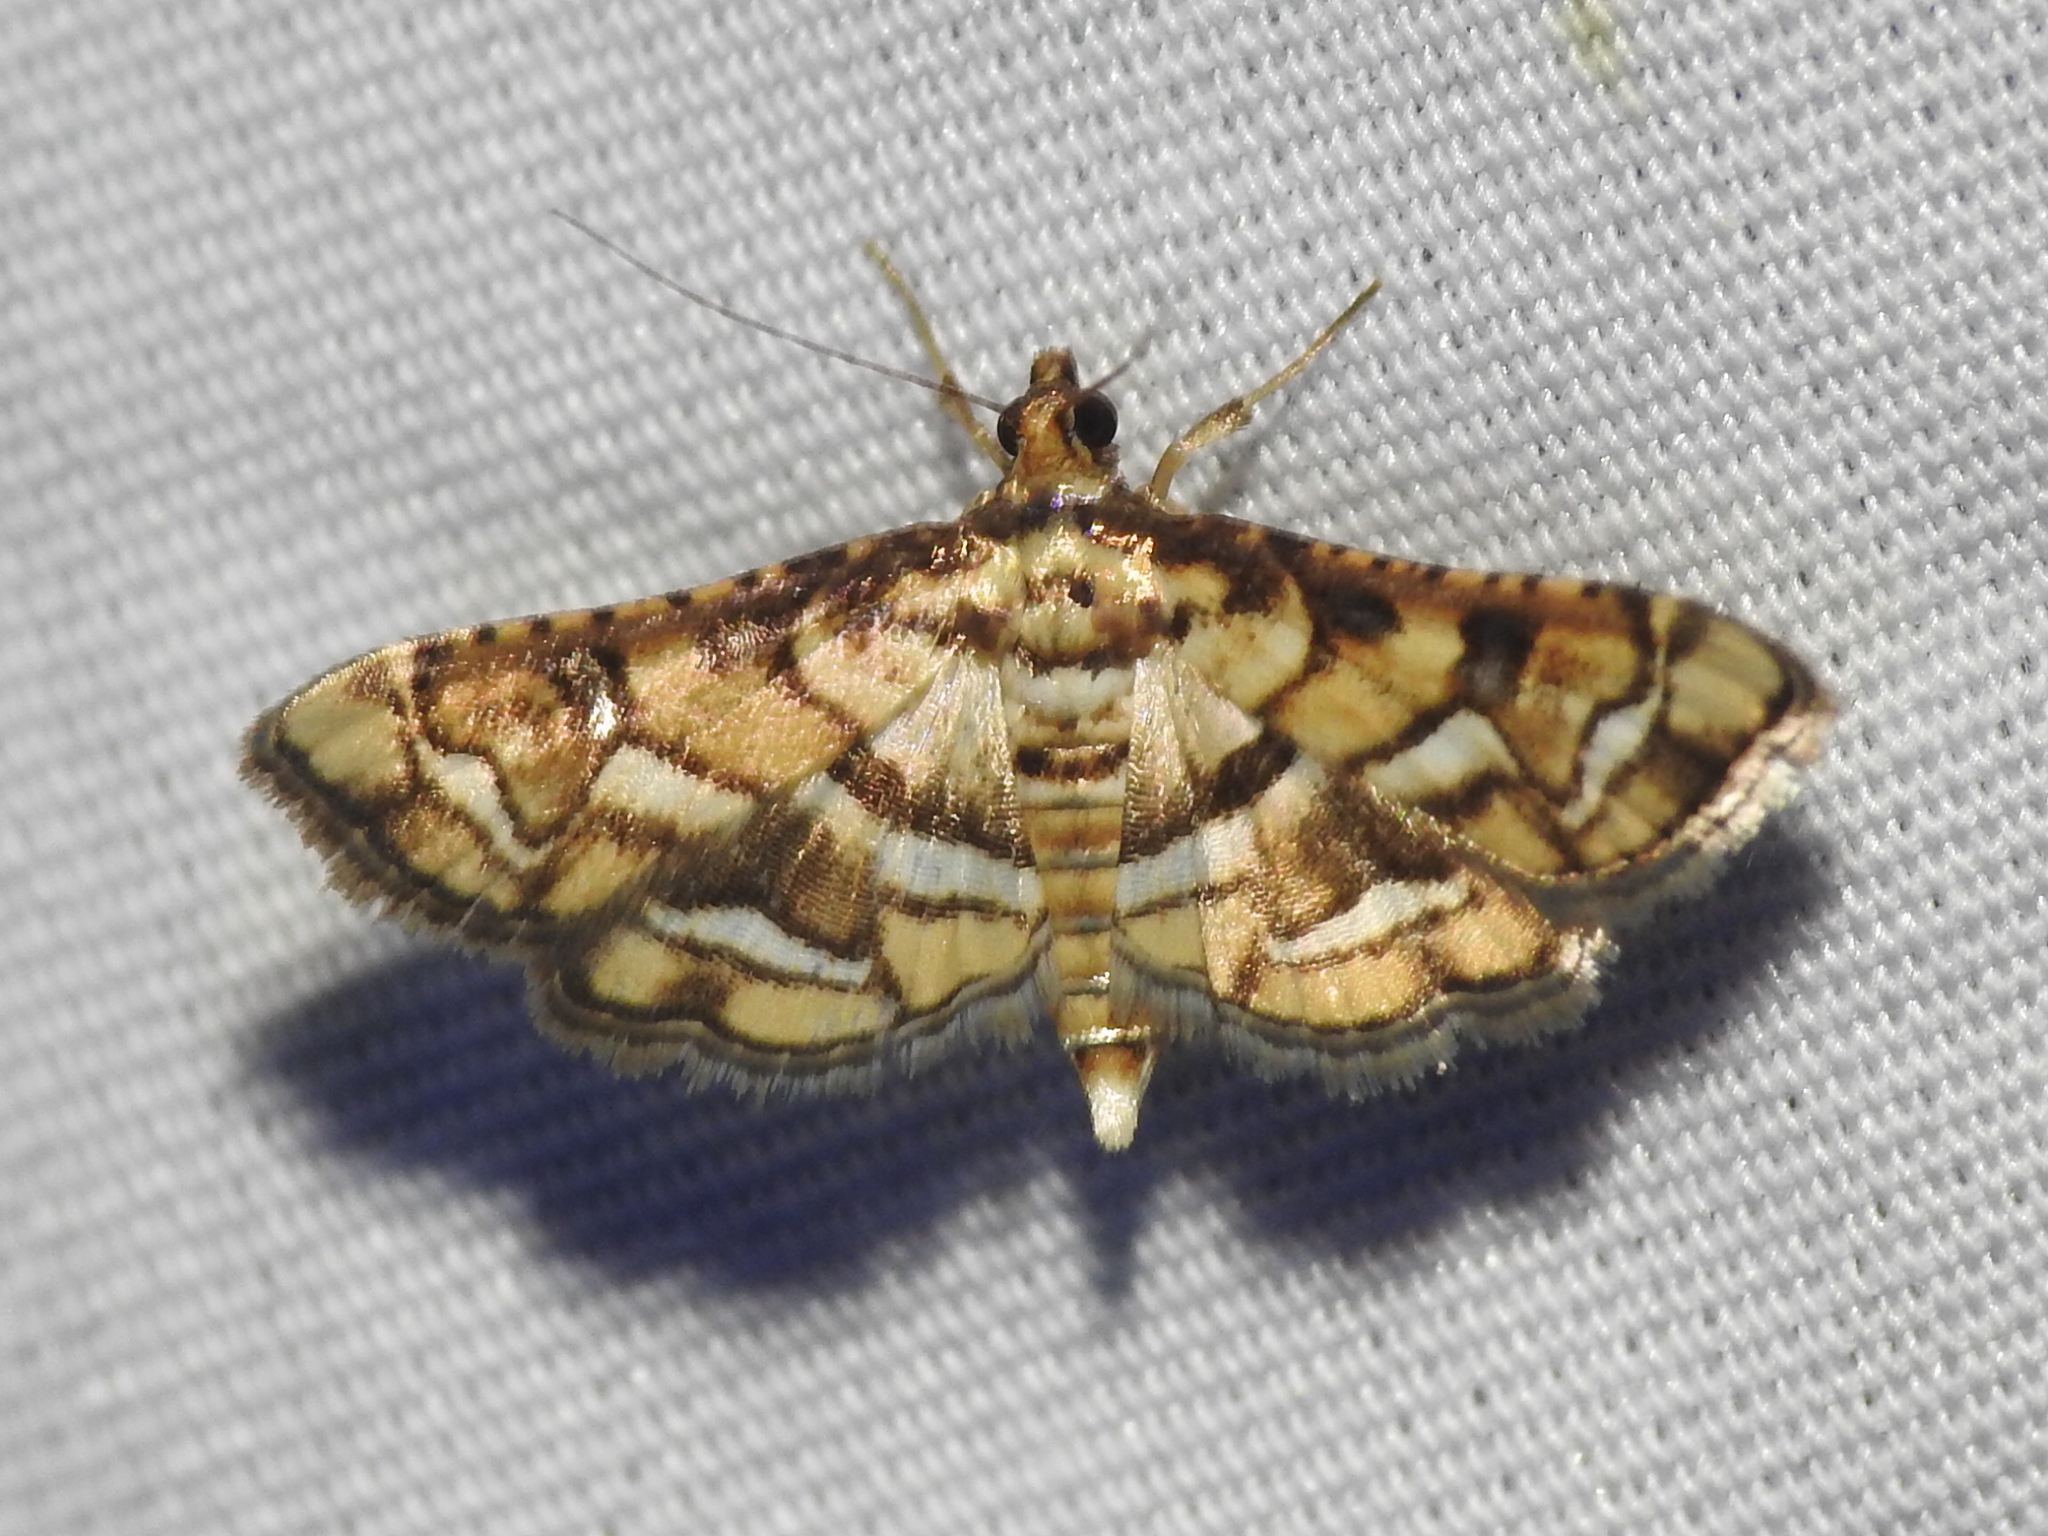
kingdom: Animalia
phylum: Arthropoda
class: Insecta
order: Lepidoptera
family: Crambidae
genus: Hileithia
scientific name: Hileithia magualis
